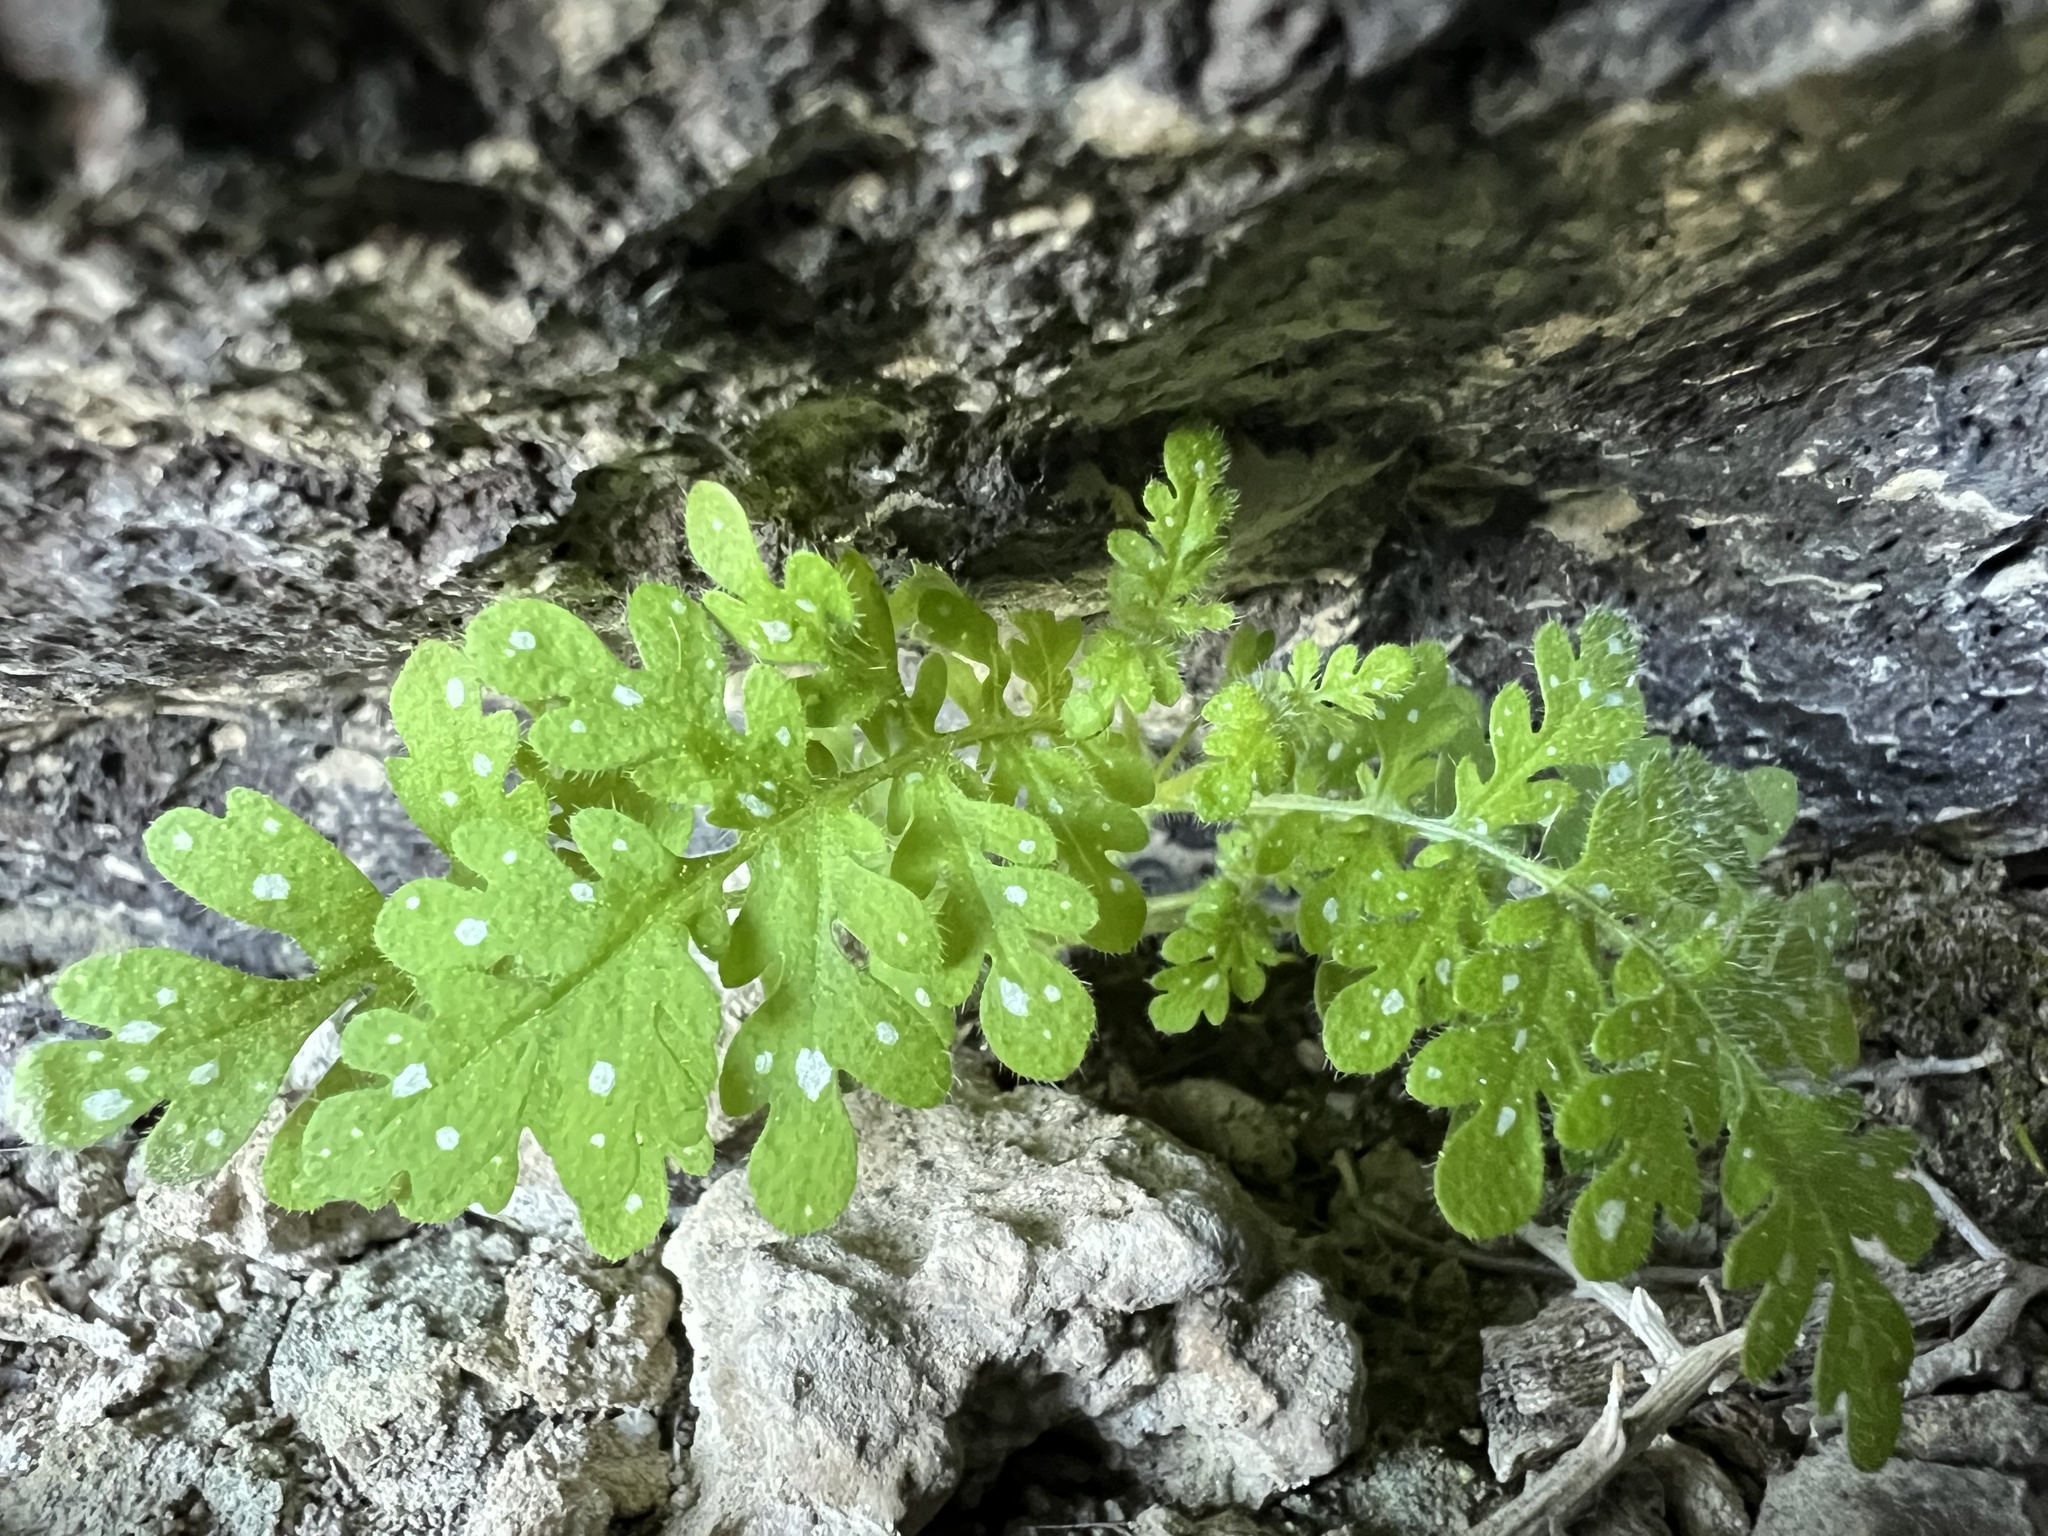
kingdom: Plantae
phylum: Tracheophyta
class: Magnoliopsida
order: Boraginales
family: Hydrophyllaceae
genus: Eucrypta
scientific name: Eucrypta chrysanthemifolia
